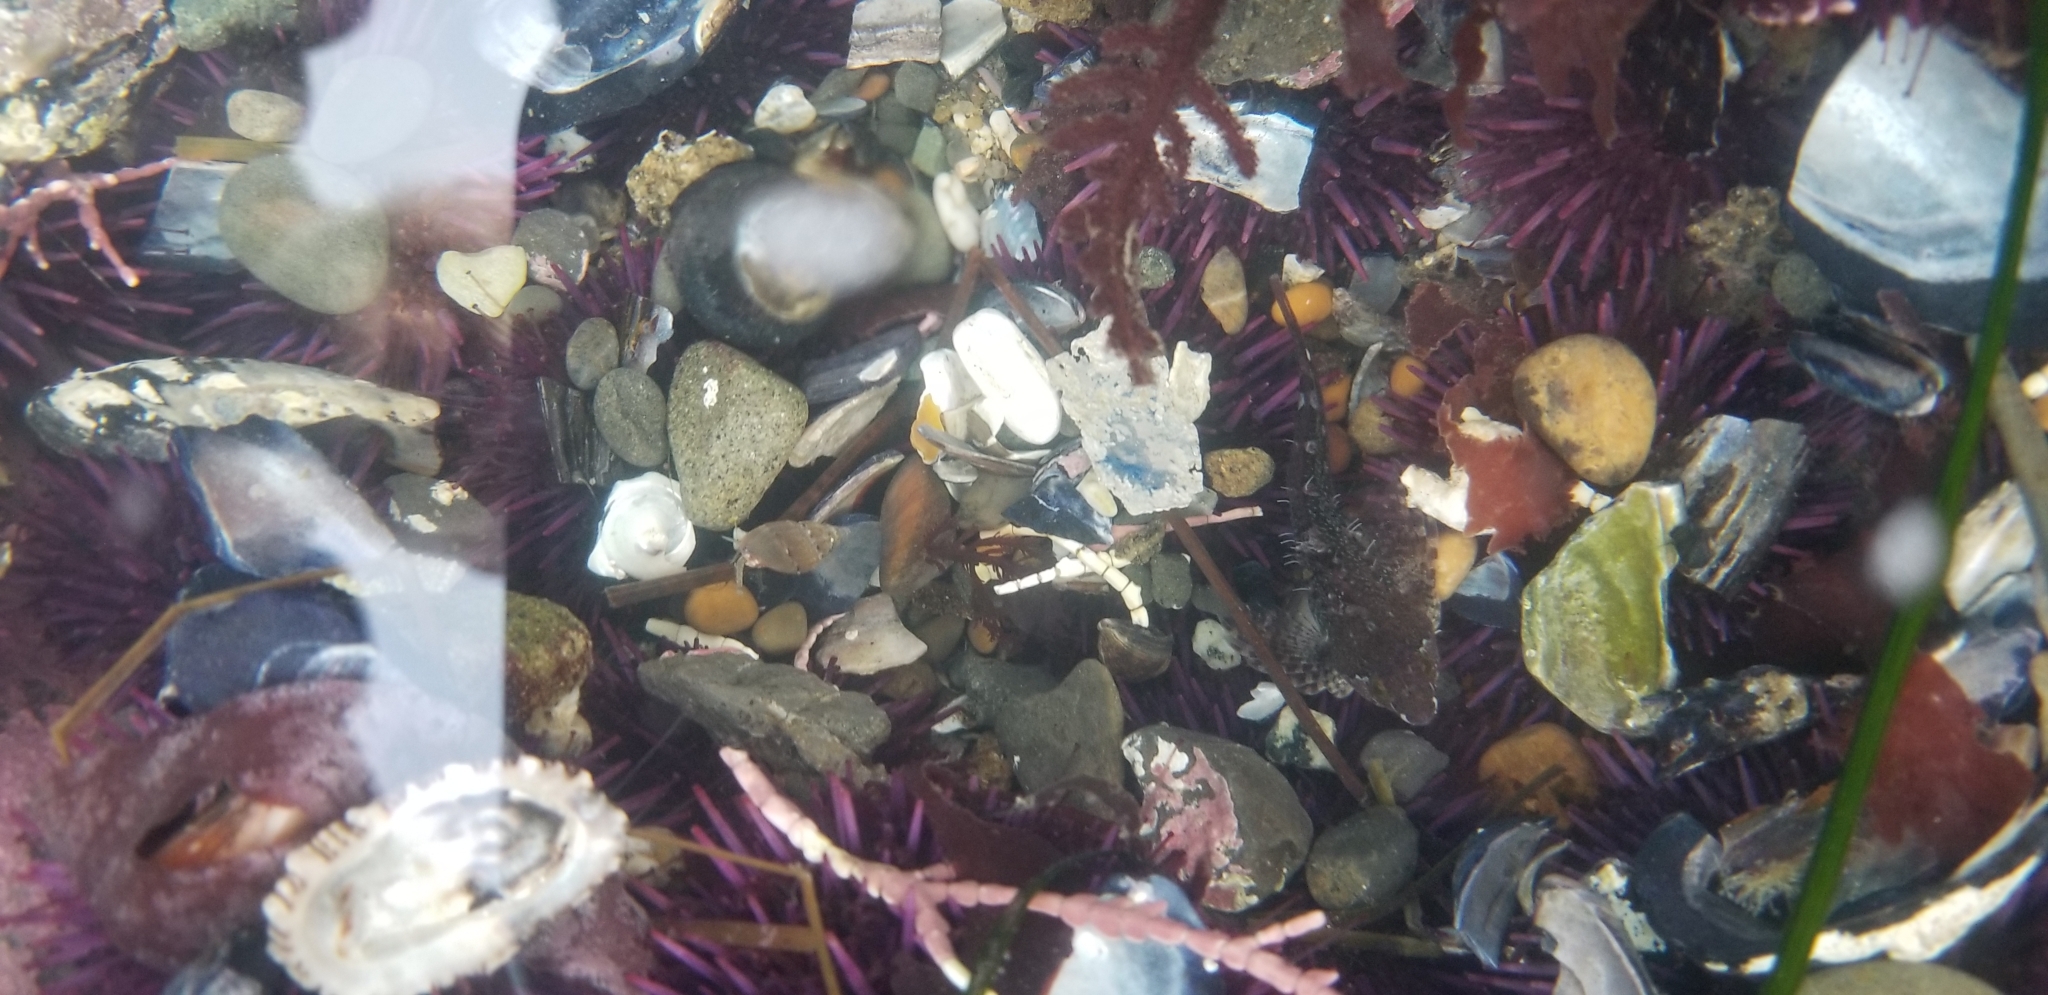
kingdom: Animalia
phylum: Chordata
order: Scorpaeniformes
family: Cottidae
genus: Oligocottus
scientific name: Oligocottus snyderi
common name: Fluffy sculpin
